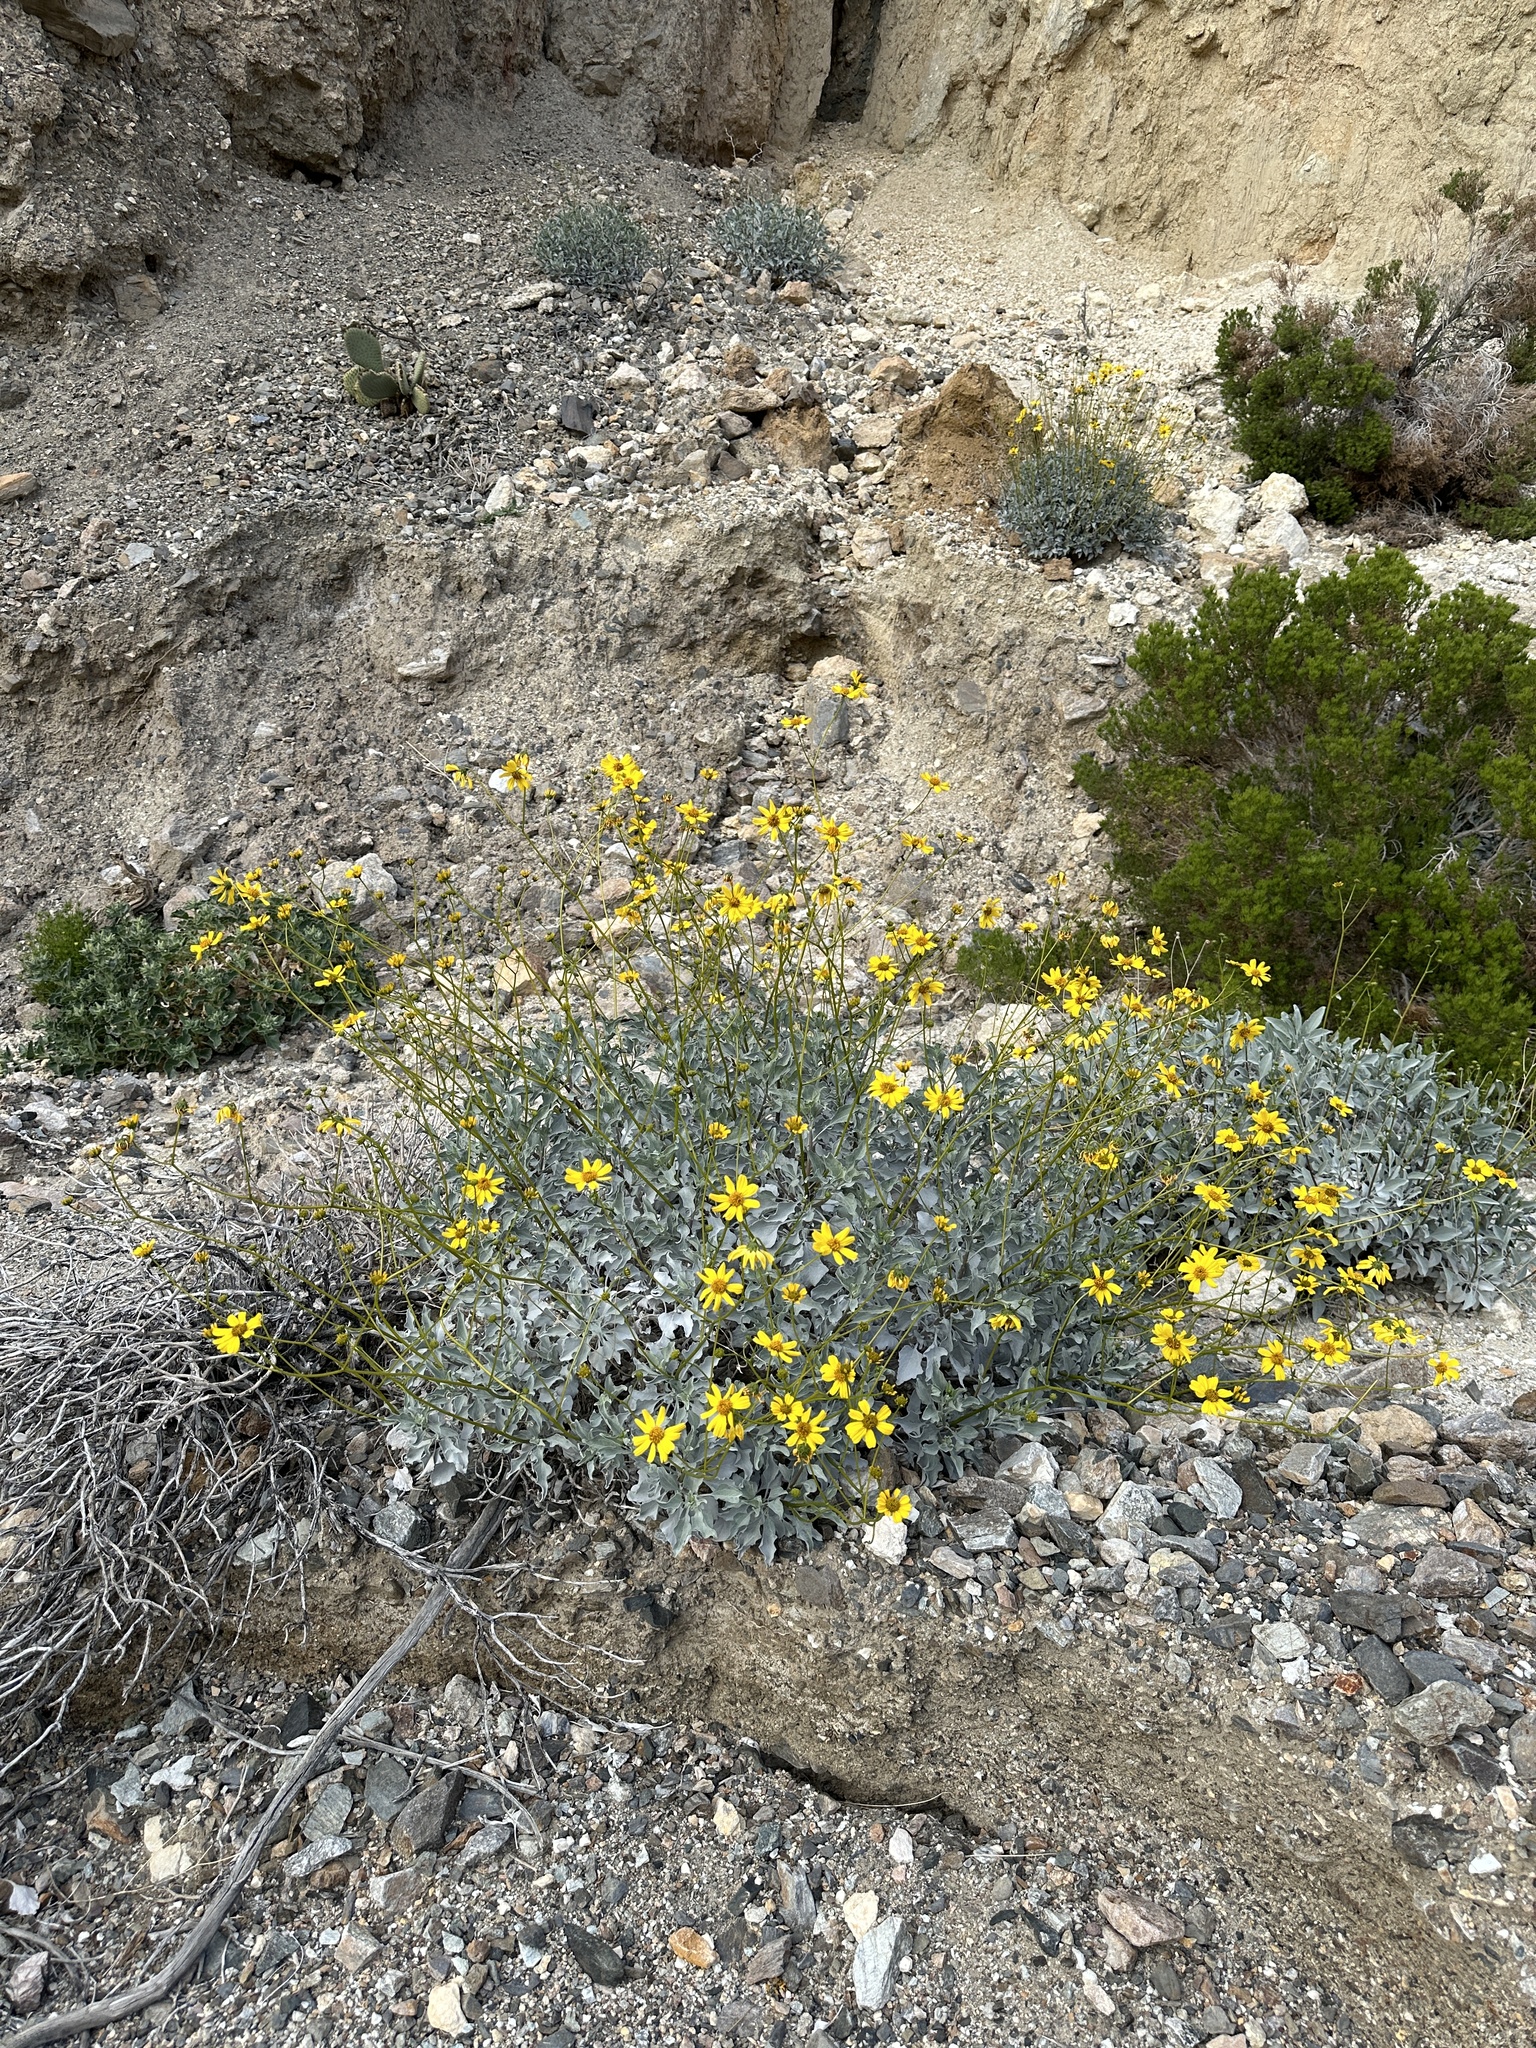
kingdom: Plantae
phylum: Tracheophyta
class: Magnoliopsida
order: Asterales
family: Asteraceae
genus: Encelia
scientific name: Encelia farinosa
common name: Brittlebush
